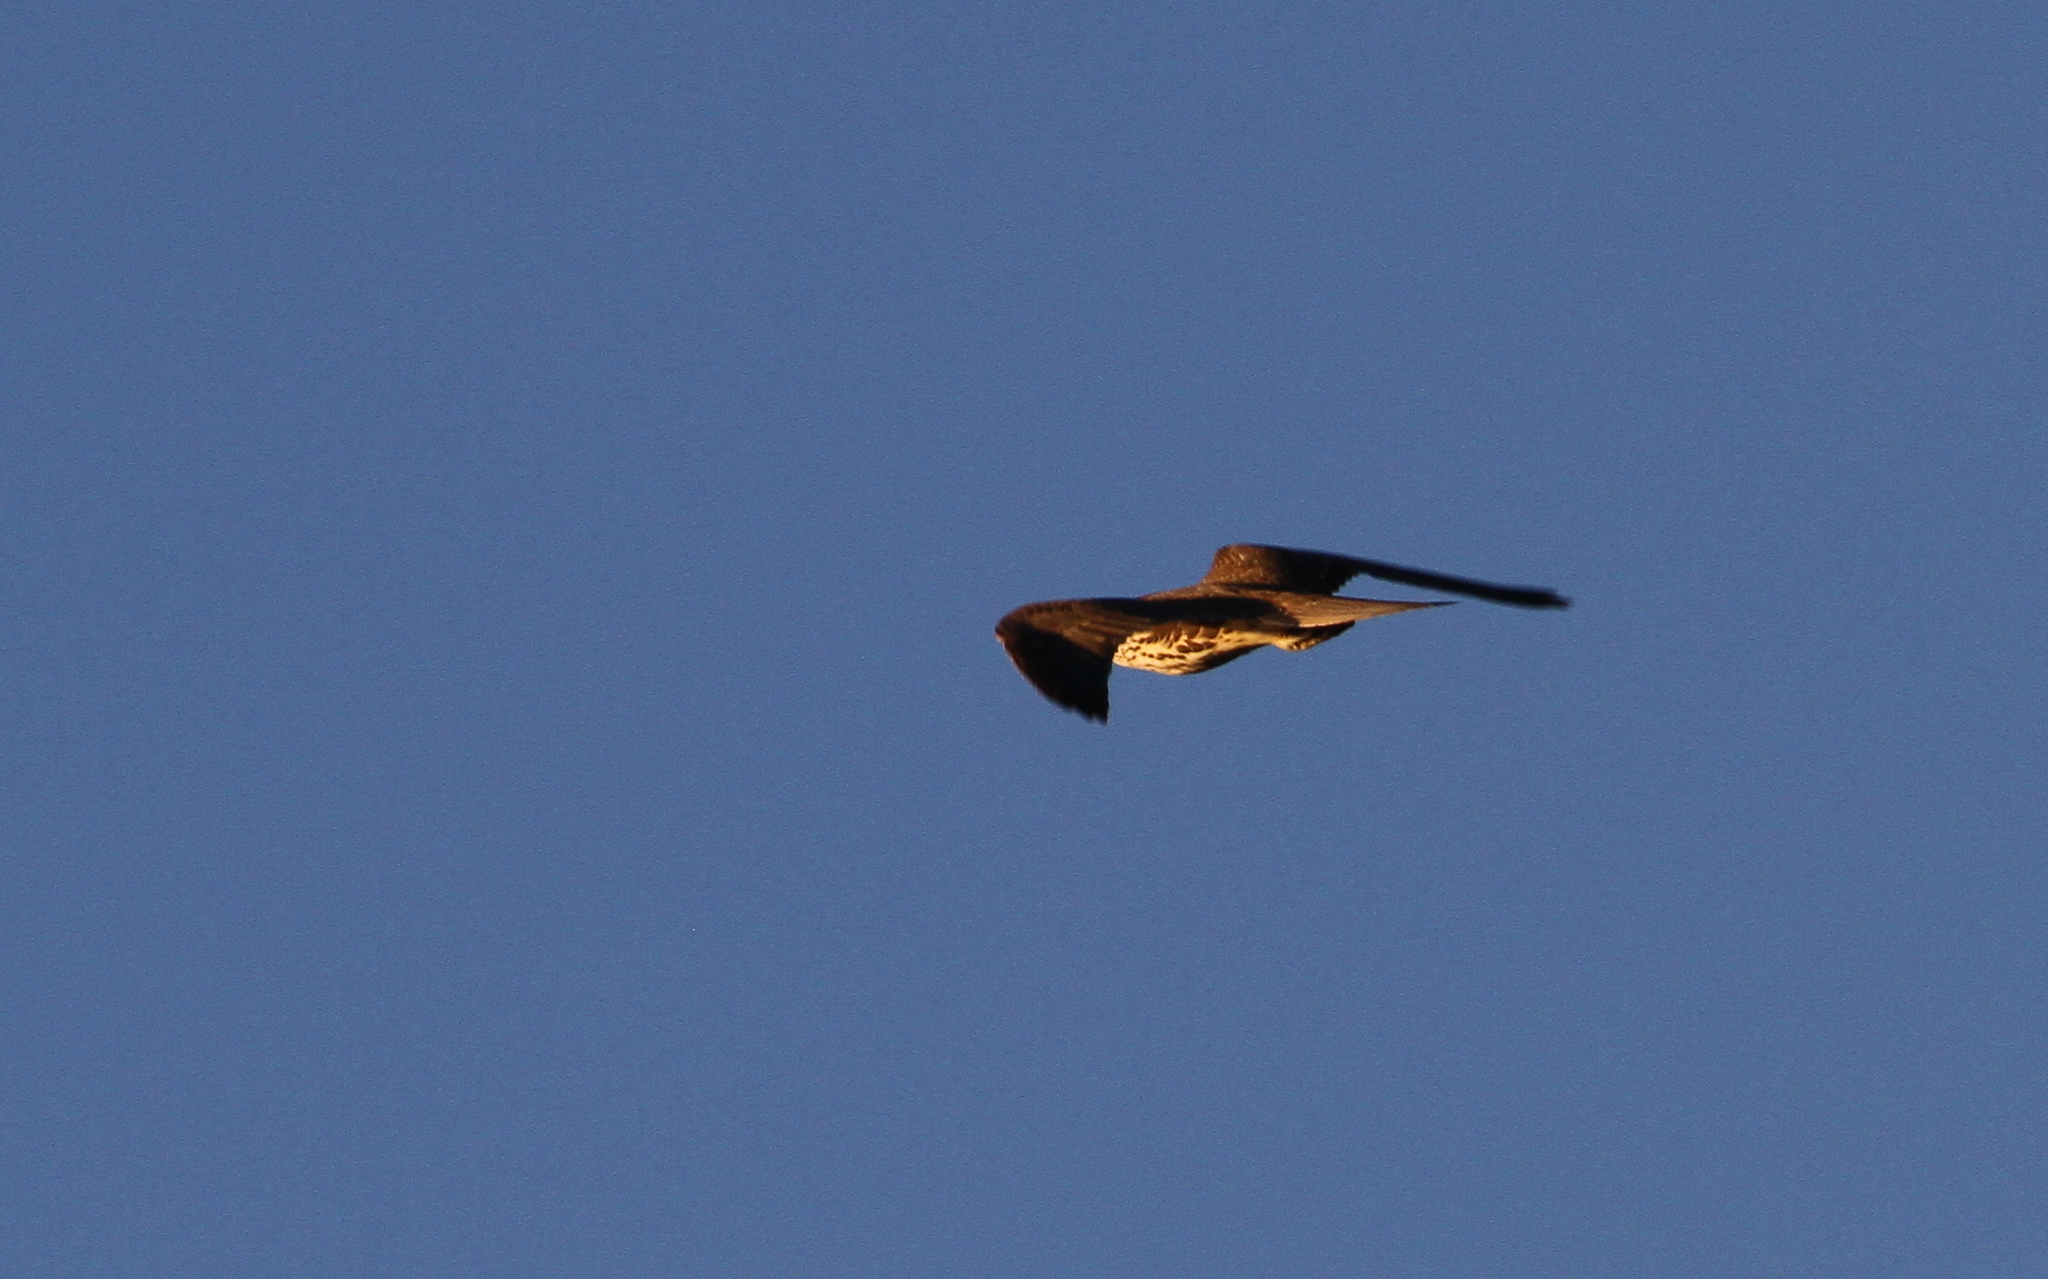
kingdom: Animalia
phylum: Chordata
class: Aves
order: Falconiformes
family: Falconidae
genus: Falco
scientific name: Falco mexicanus
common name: Prairie falcon
